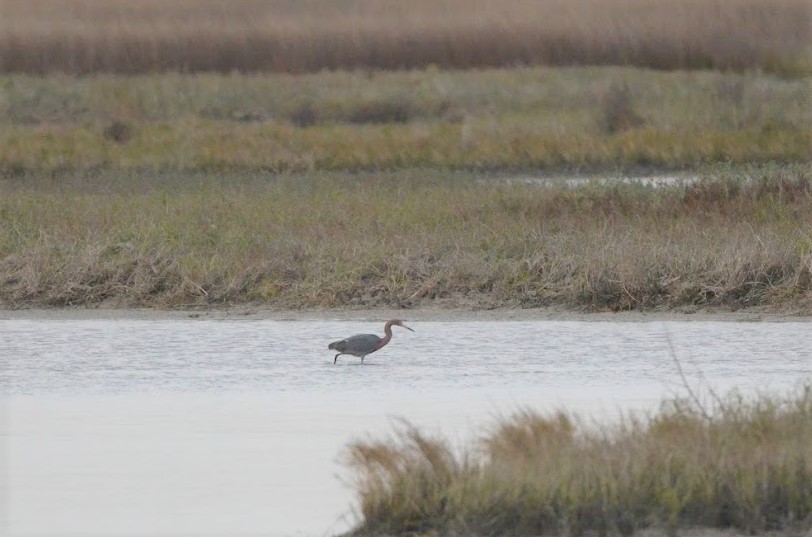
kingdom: Animalia
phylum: Chordata
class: Aves
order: Pelecaniformes
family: Ardeidae
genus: Egretta
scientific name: Egretta rufescens
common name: Reddish egret
